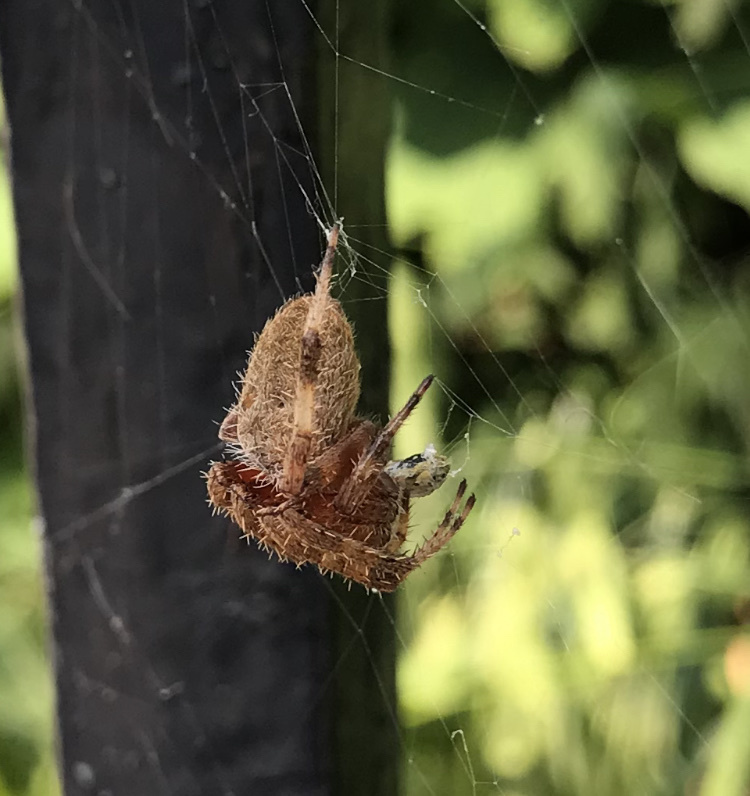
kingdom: Animalia
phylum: Arthropoda
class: Arachnida
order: Araneae
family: Araneidae
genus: Neoscona
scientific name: Neoscona crucifera
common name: Spotted orbweaver
